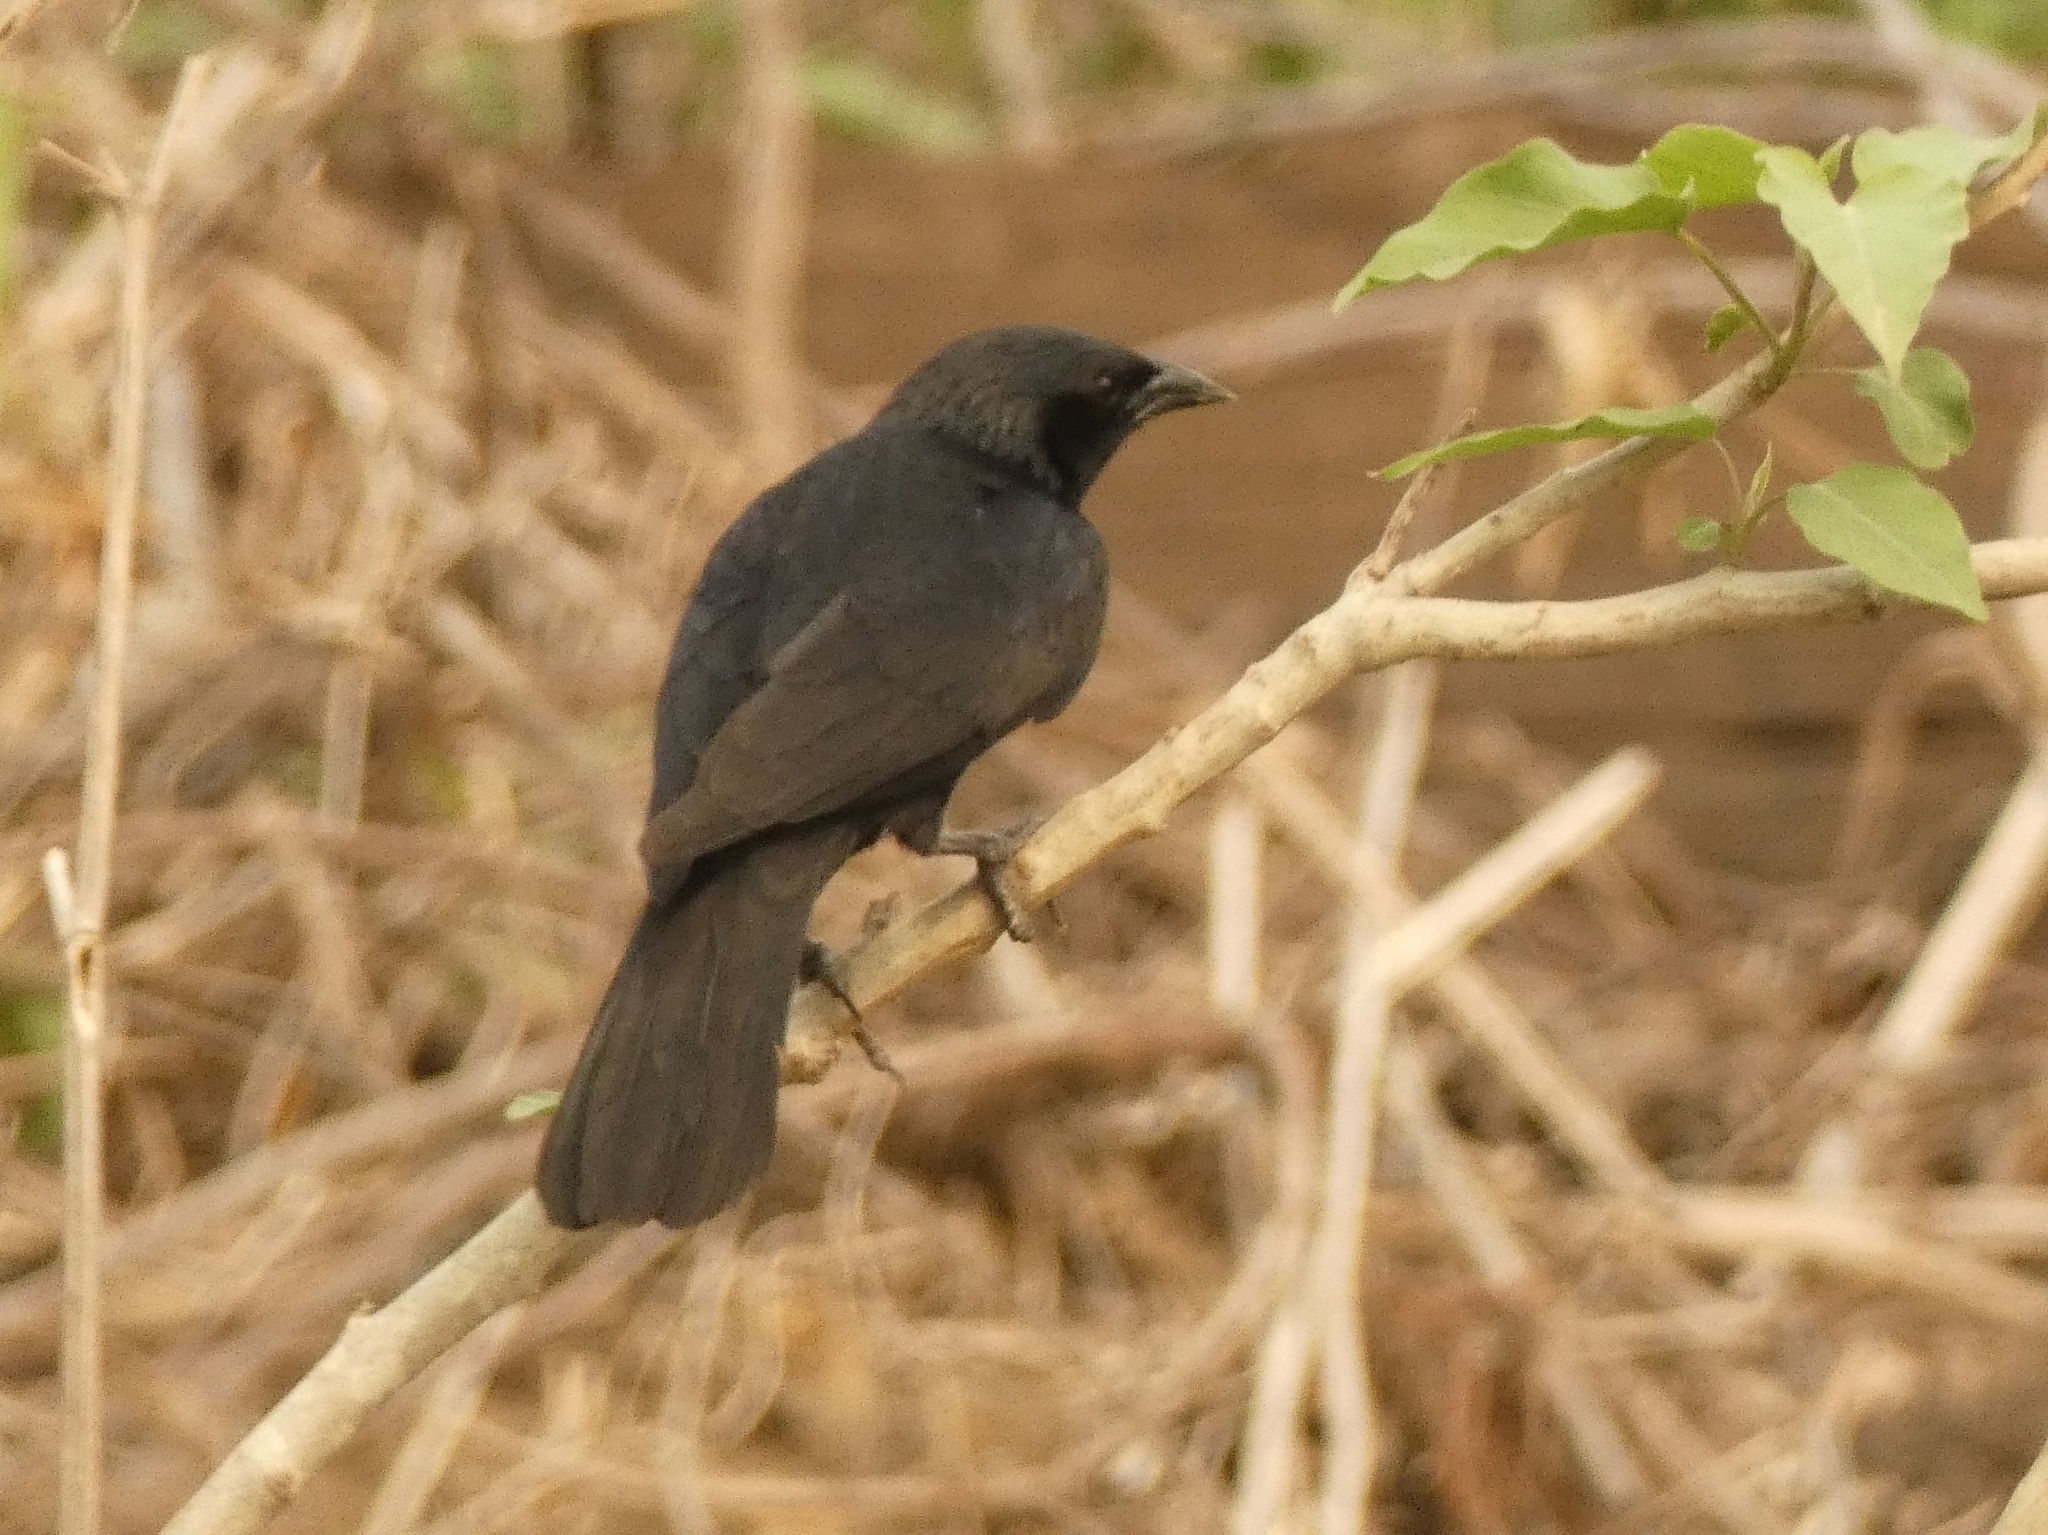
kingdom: Animalia
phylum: Chordata
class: Aves
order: Passeriformes
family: Icteridae
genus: Gnorimopsar
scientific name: Gnorimopsar chopi
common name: Chopi blackbird
